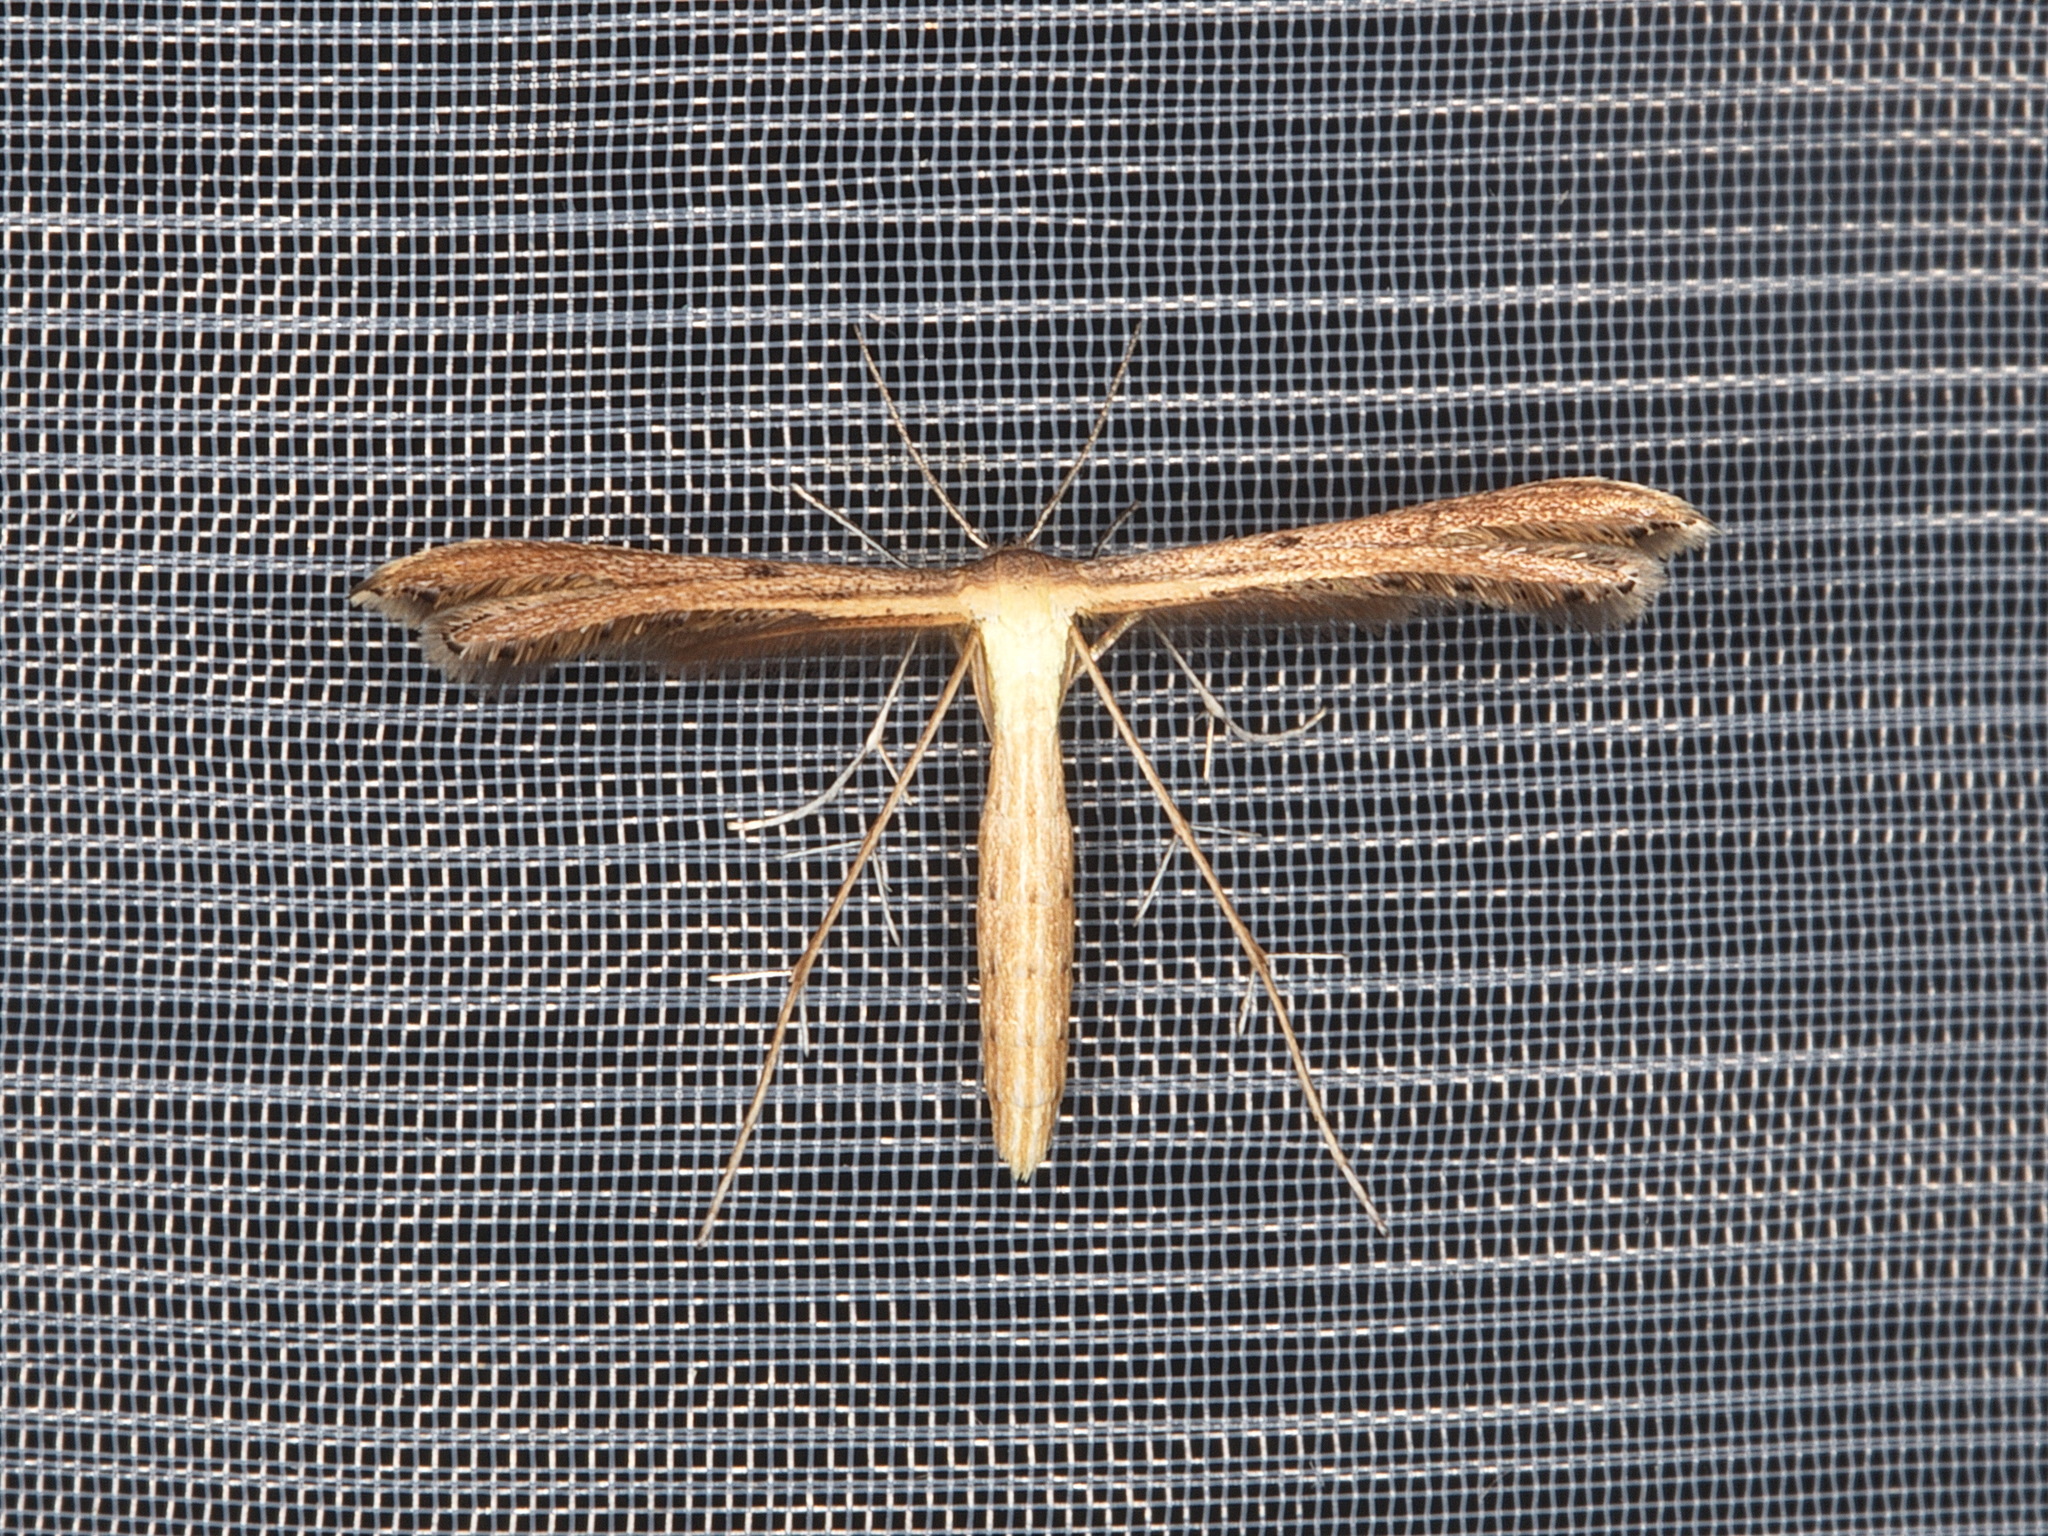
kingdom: Animalia
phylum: Arthropoda
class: Insecta
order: Lepidoptera
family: Pterophoridae
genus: Exelastis
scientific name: Exelastis pumilio
